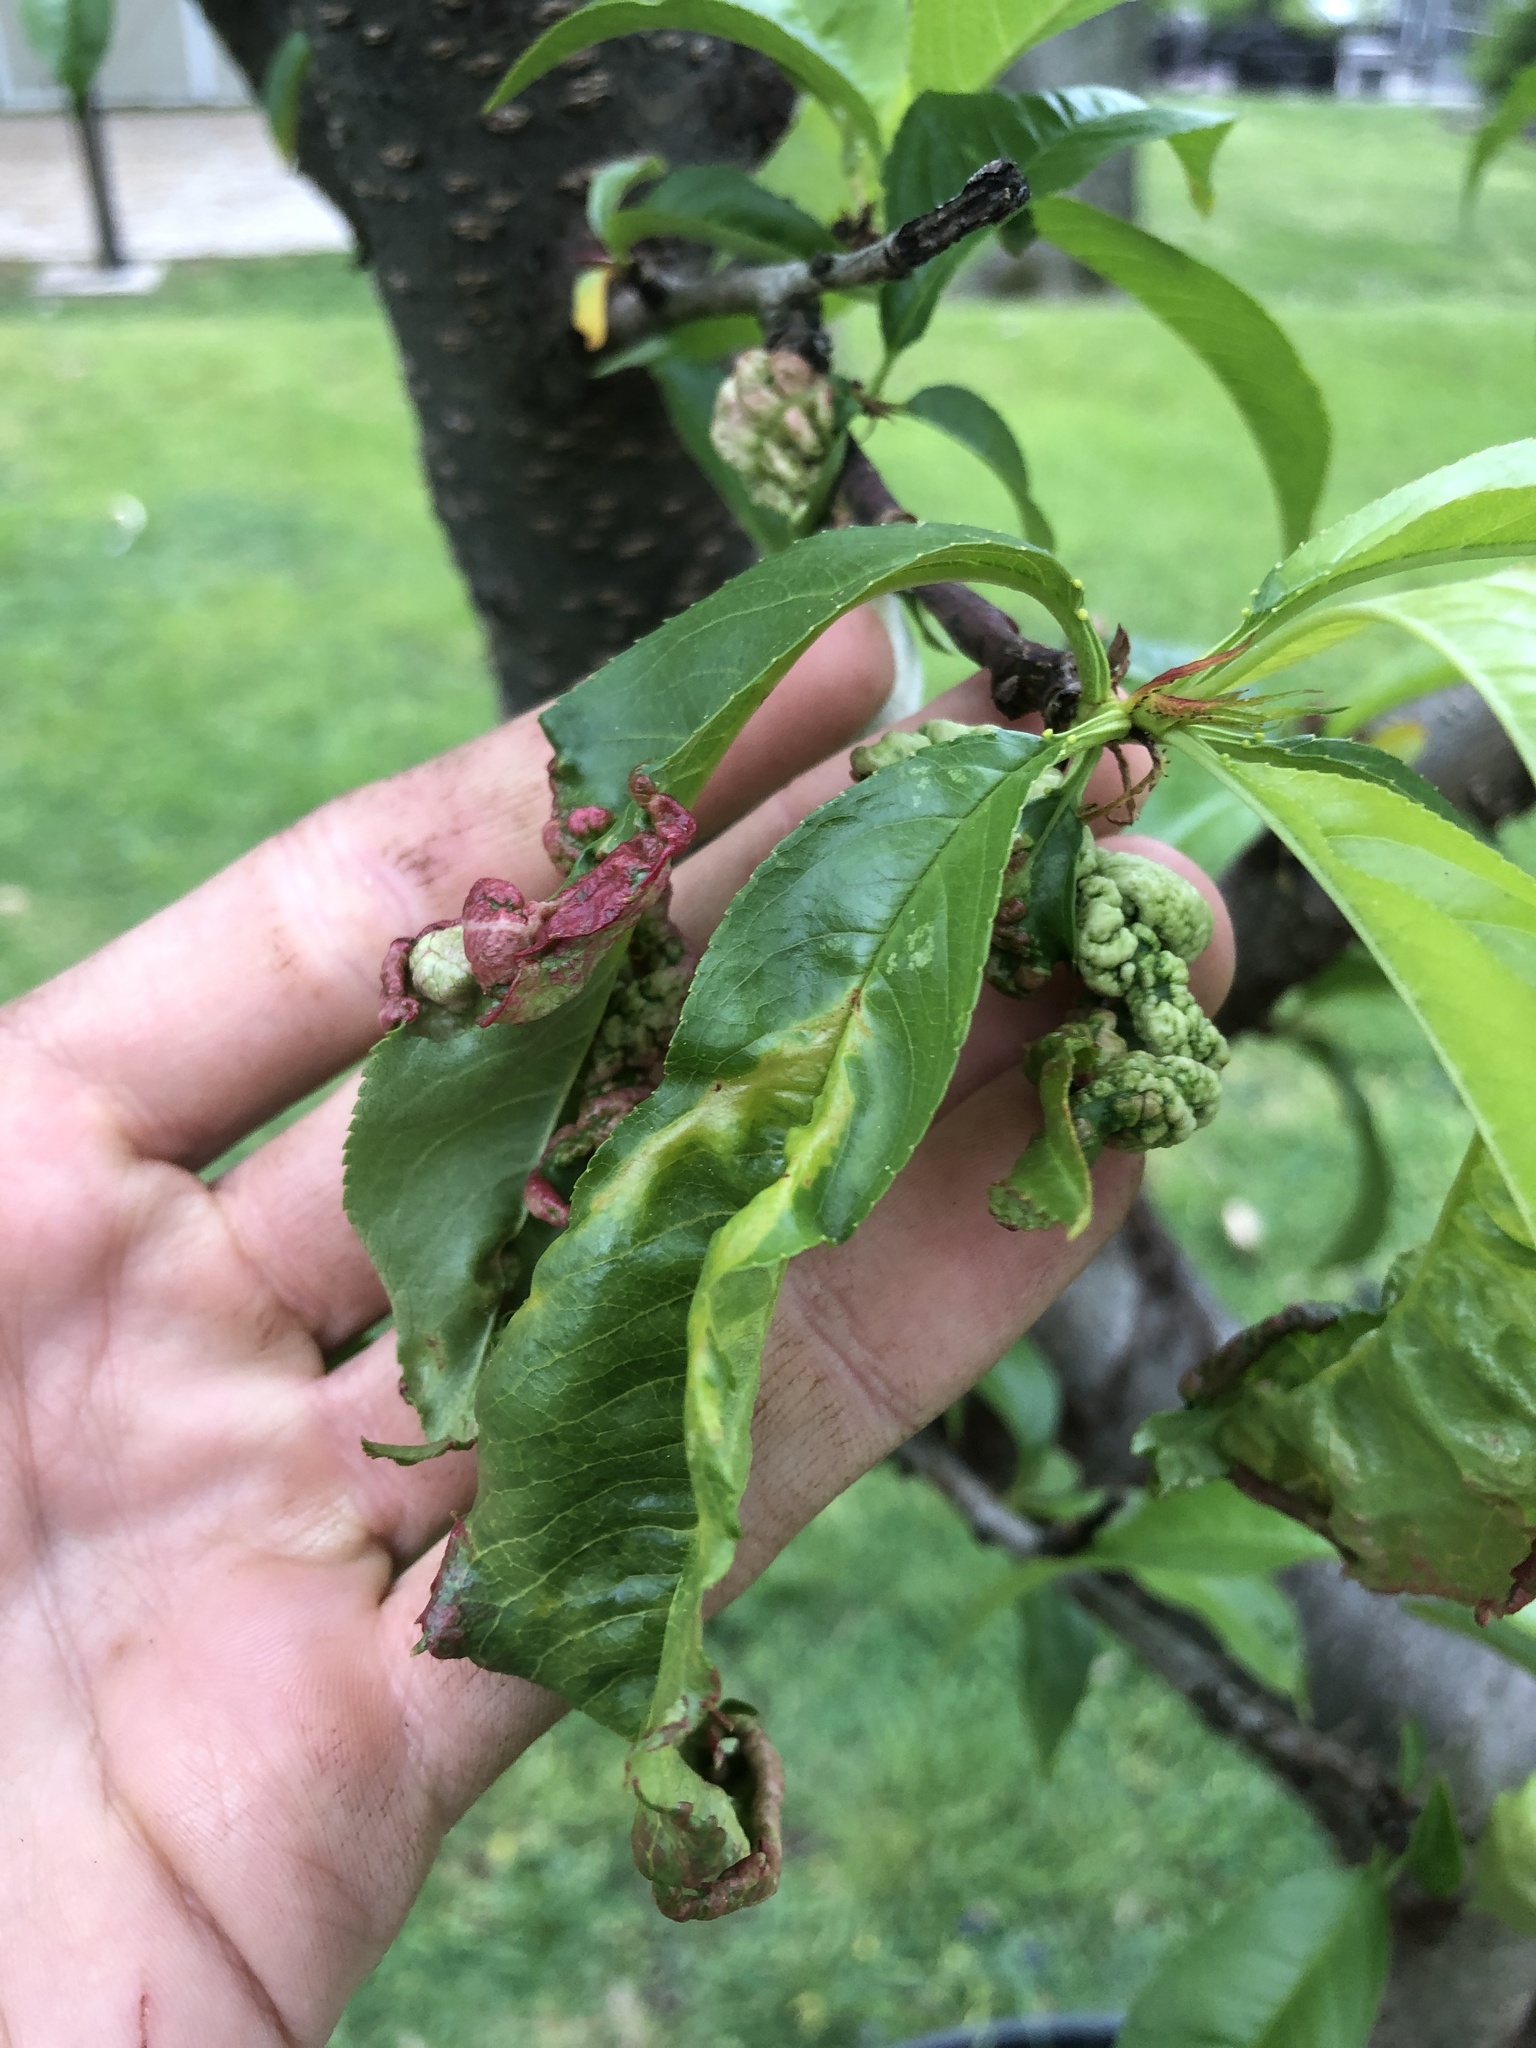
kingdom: Fungi
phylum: Ascomycota
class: Taphrinomycetes
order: Taphrinales
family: Taphrinaceae
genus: Taphrina
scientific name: Taphrina deformans
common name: Peach leaf curl
